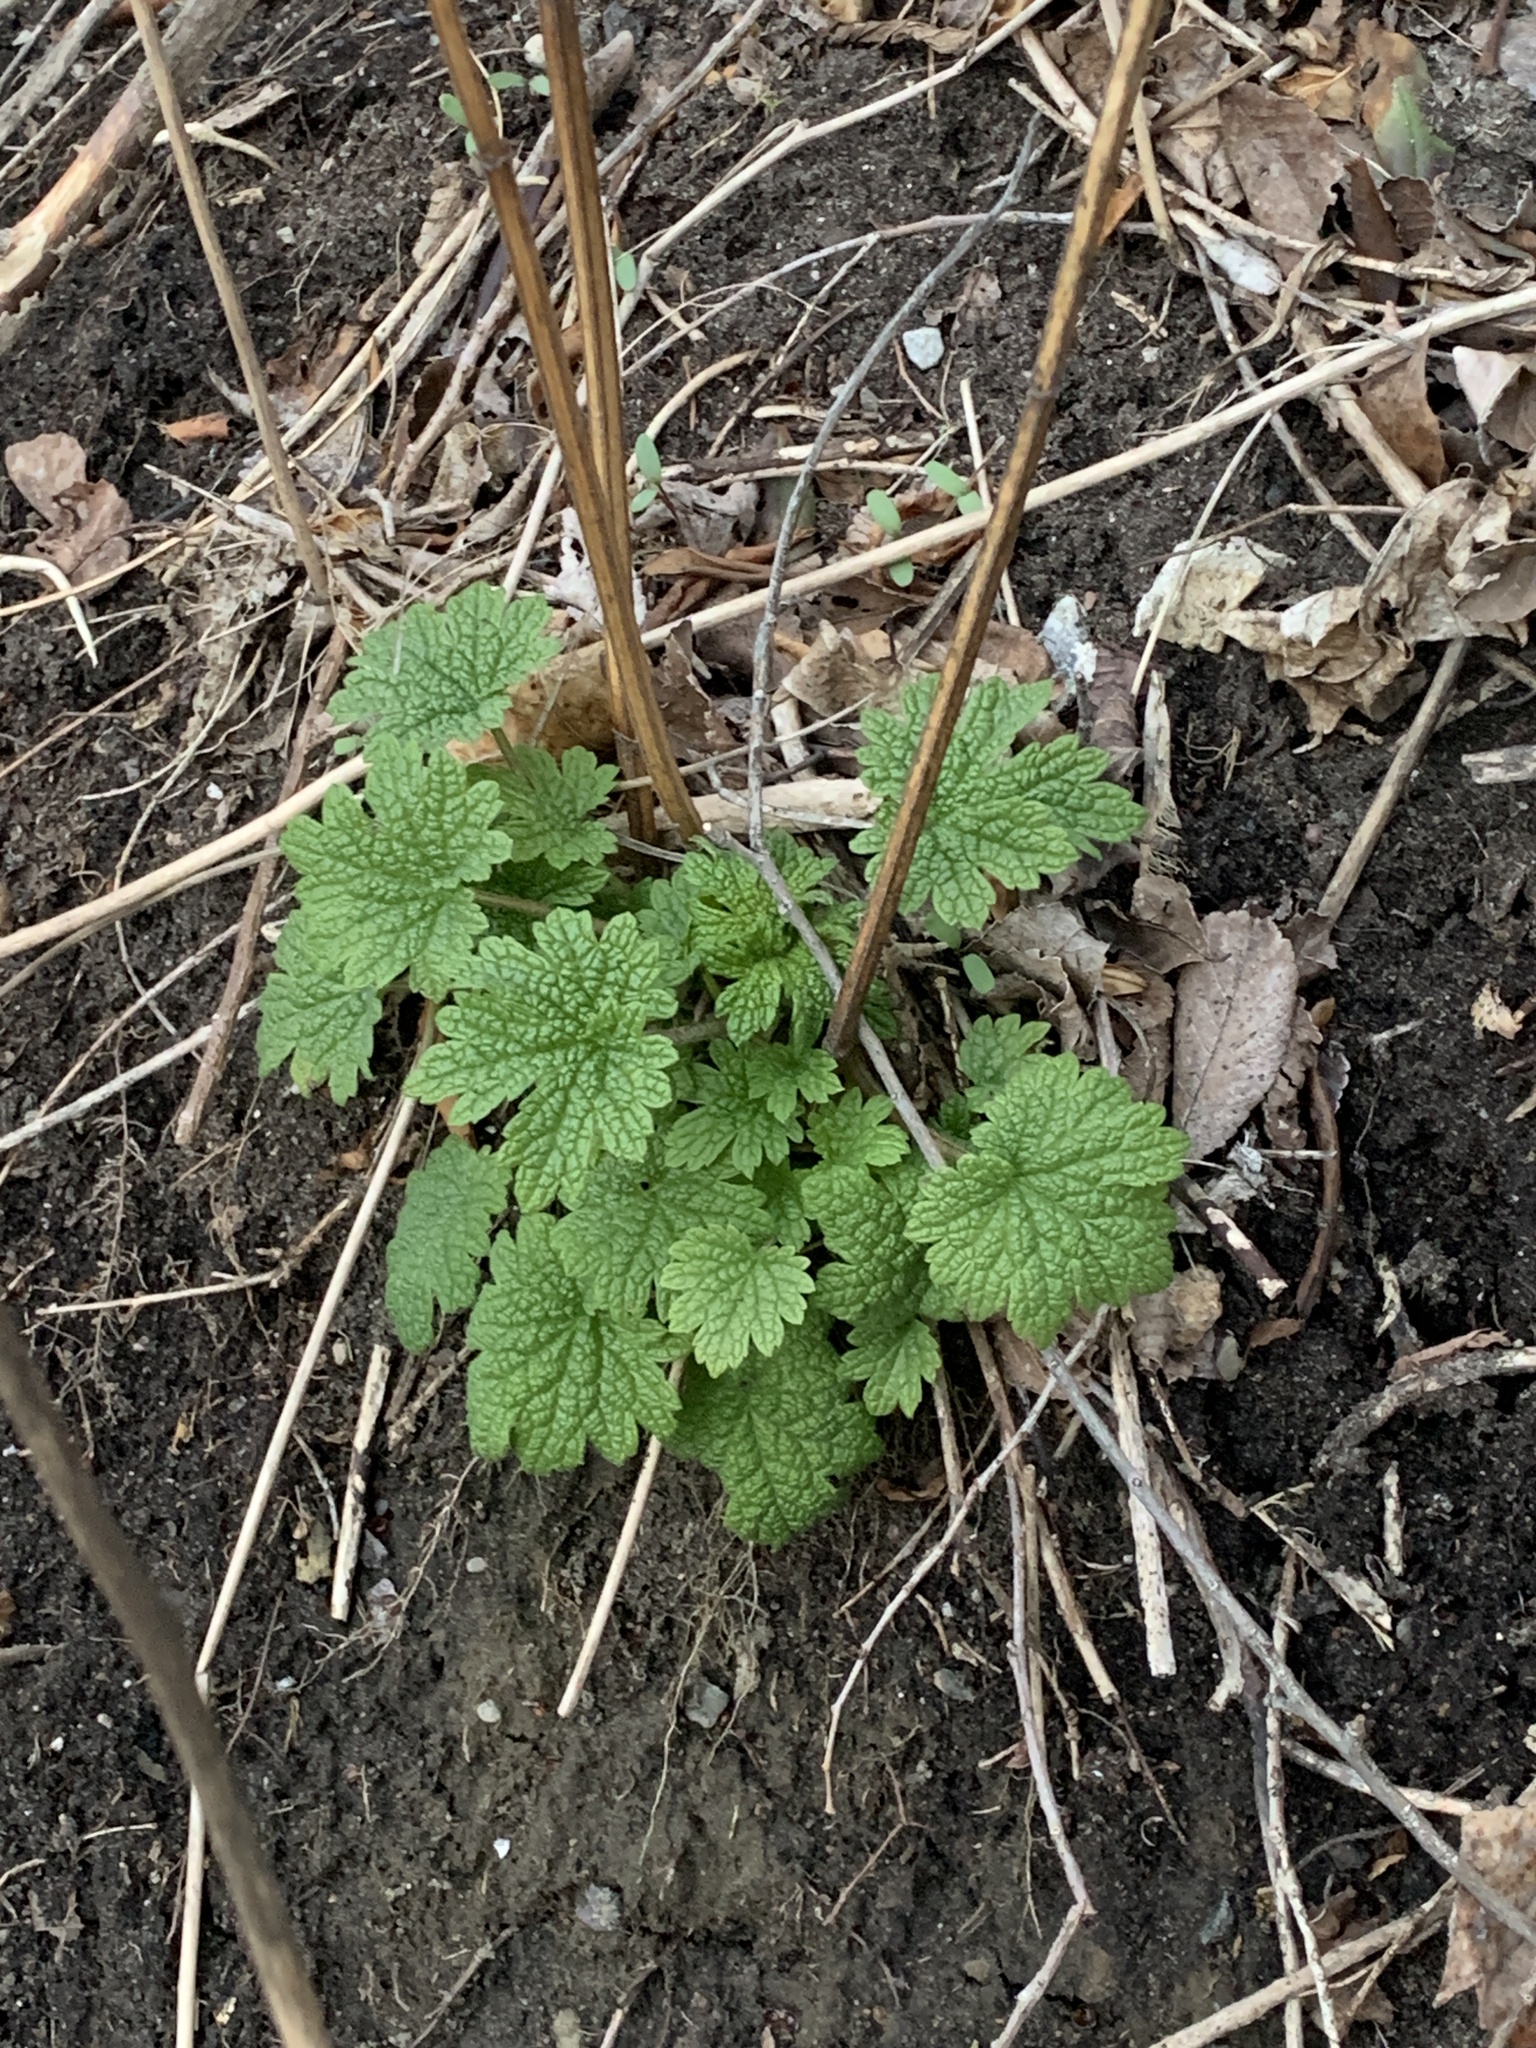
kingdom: Plantae
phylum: Tracheophyta
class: Magnoliopsida
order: Lamiales
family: Lamiaceae
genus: Leonurus
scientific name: Leonurus cardiaca
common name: Motherwort
